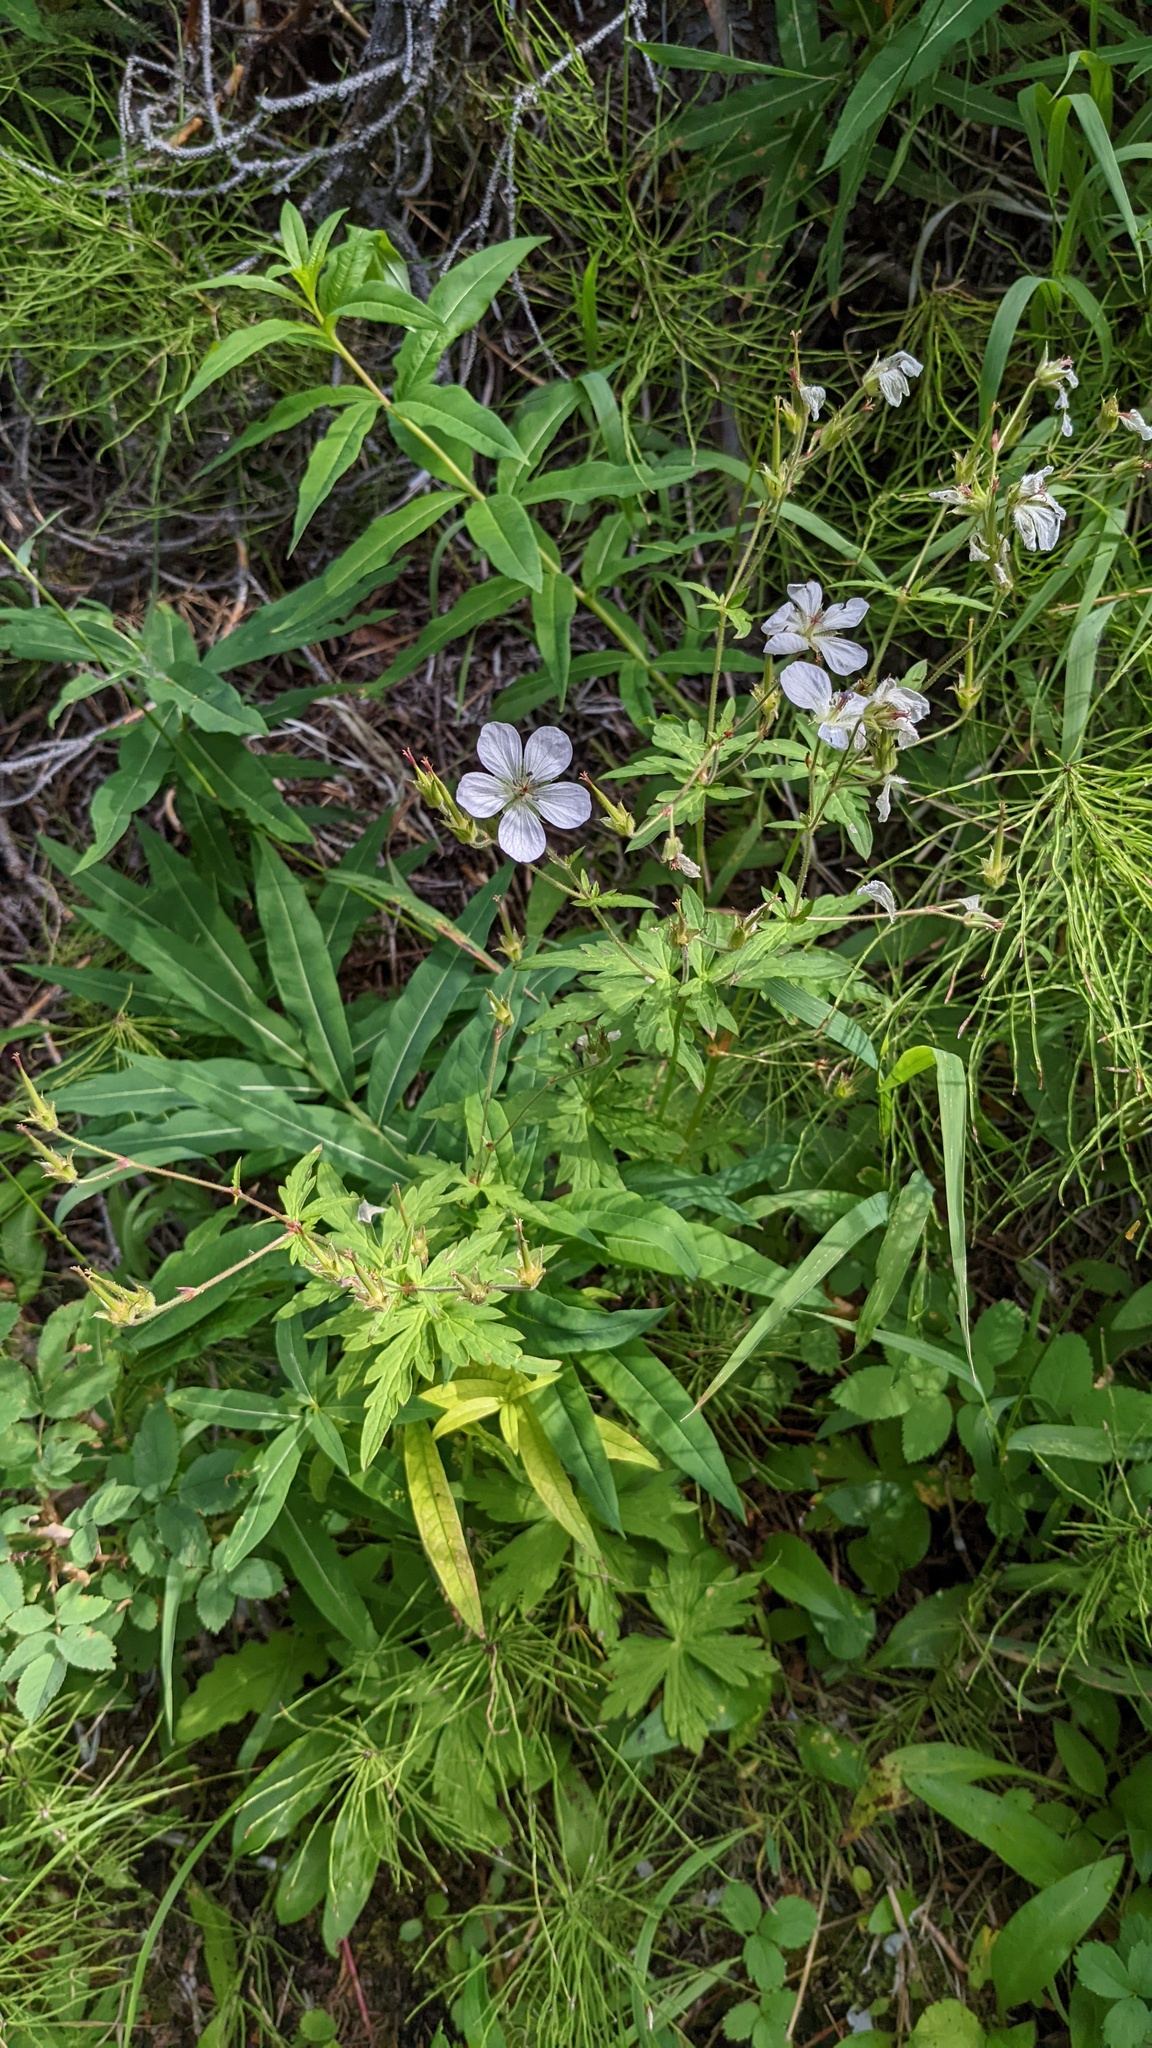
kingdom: Plantae
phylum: Tracheophyta
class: Magnoliopsida
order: Geraniales
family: Geraniaceae
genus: Geranium
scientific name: Geranium richardsonii
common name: Richardson's crane's-bill
